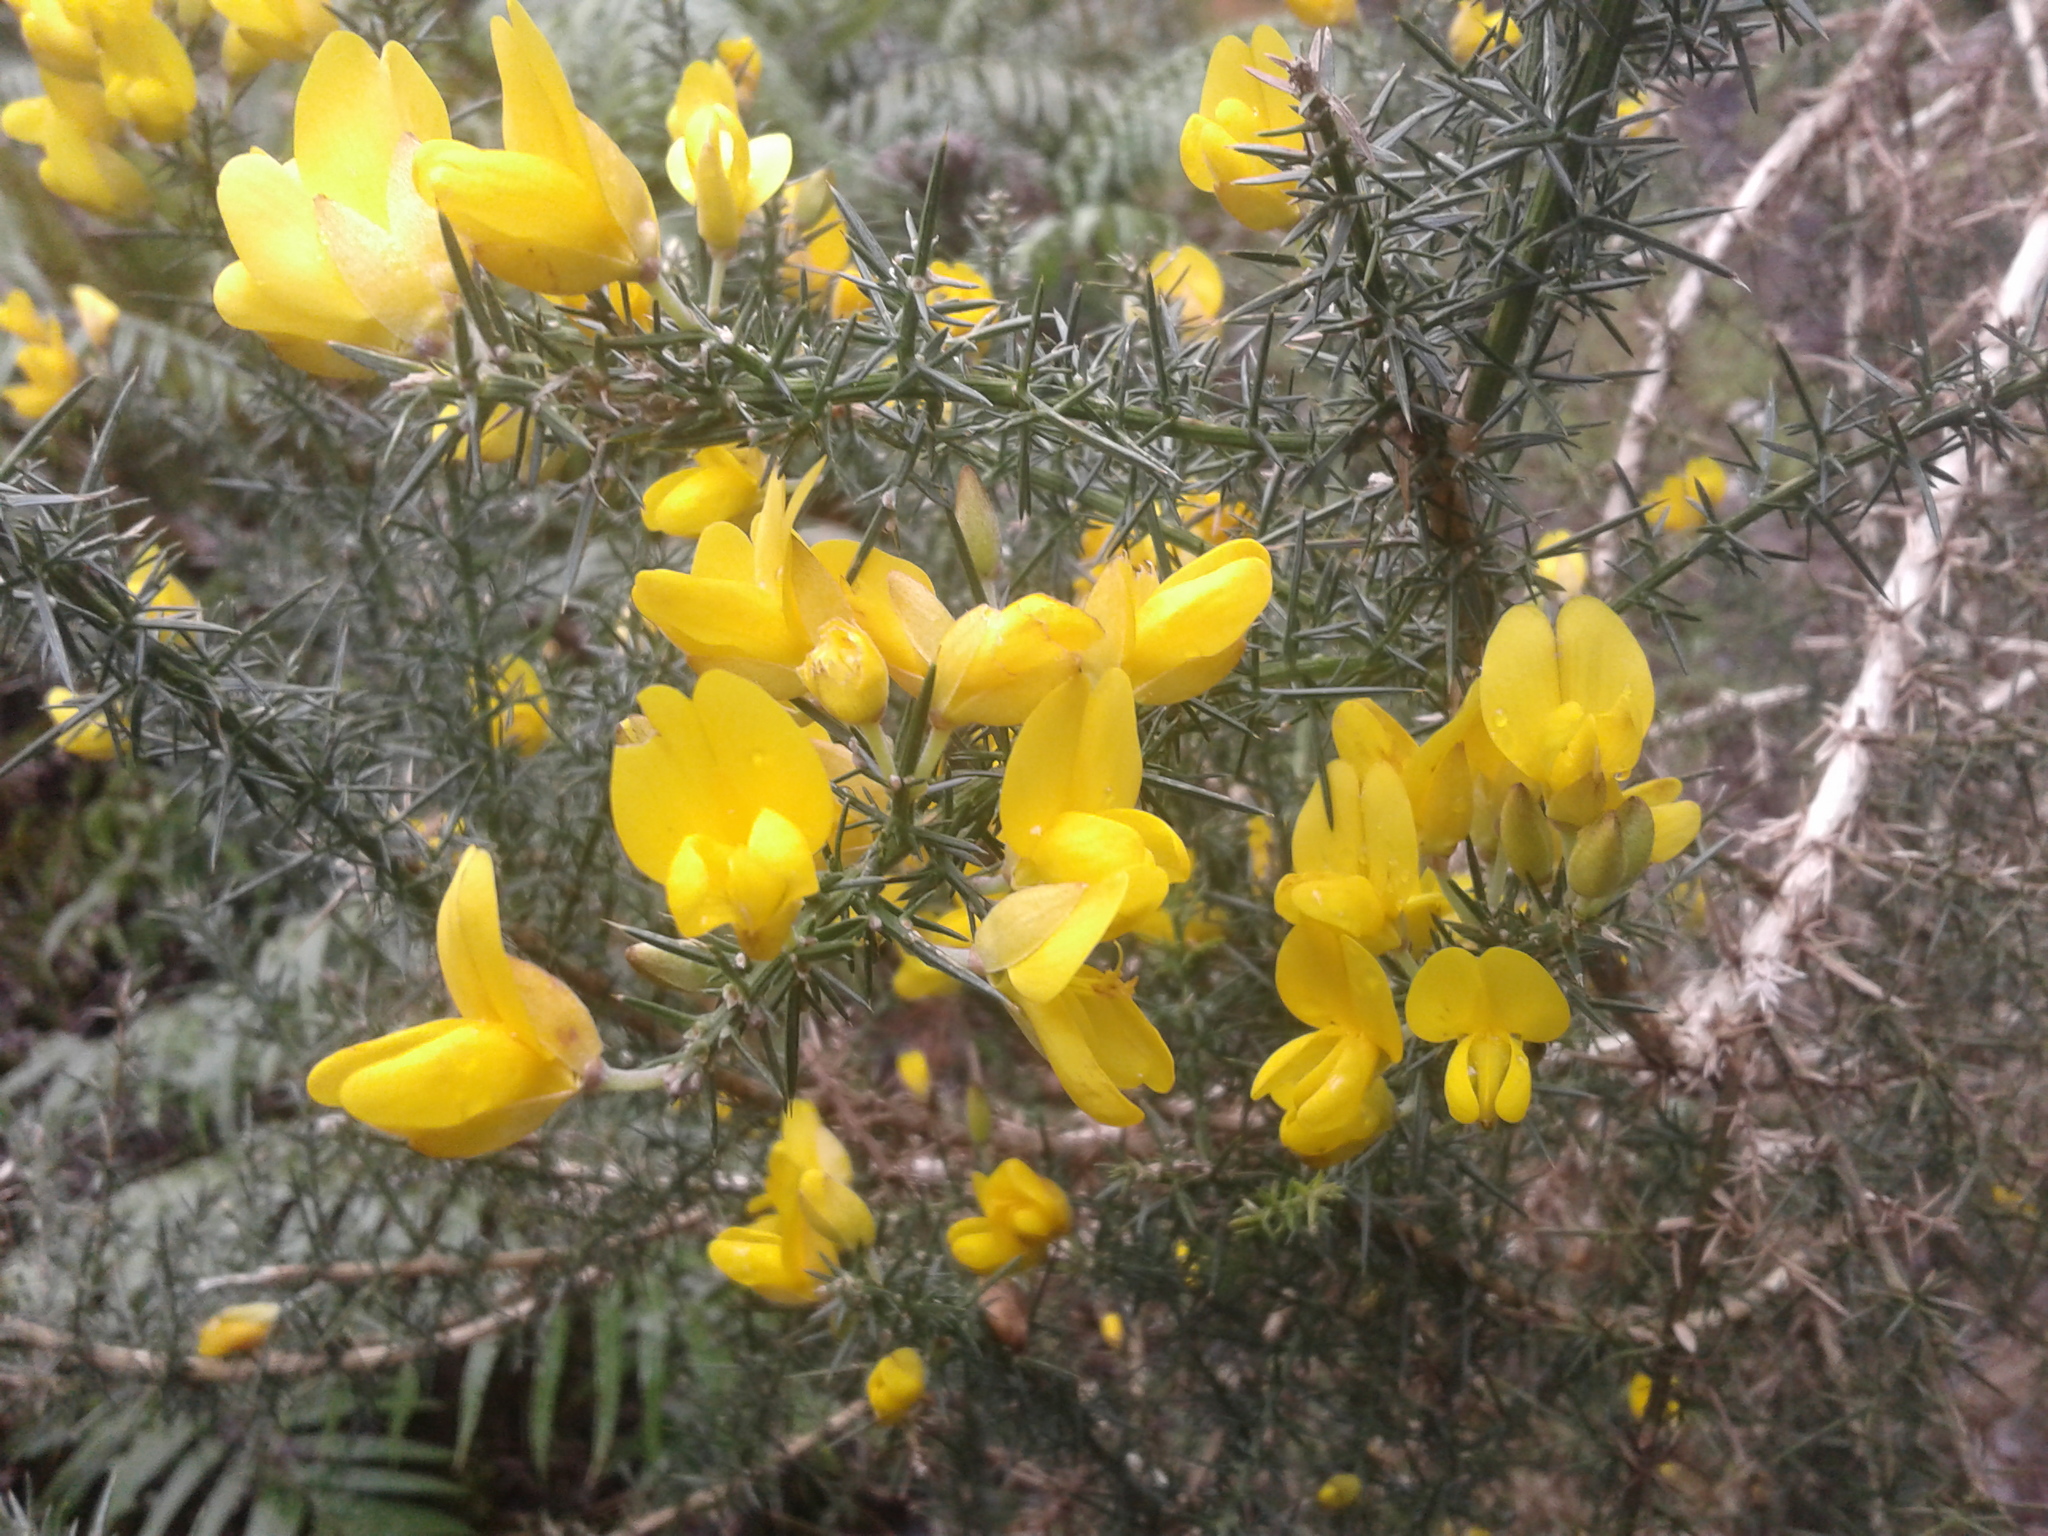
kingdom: Plantae
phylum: Tracheophyta
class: Magnoliopsida
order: Fabales
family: Fabaceae
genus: Ulex
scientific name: Ulex europaeus
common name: Common gorse
